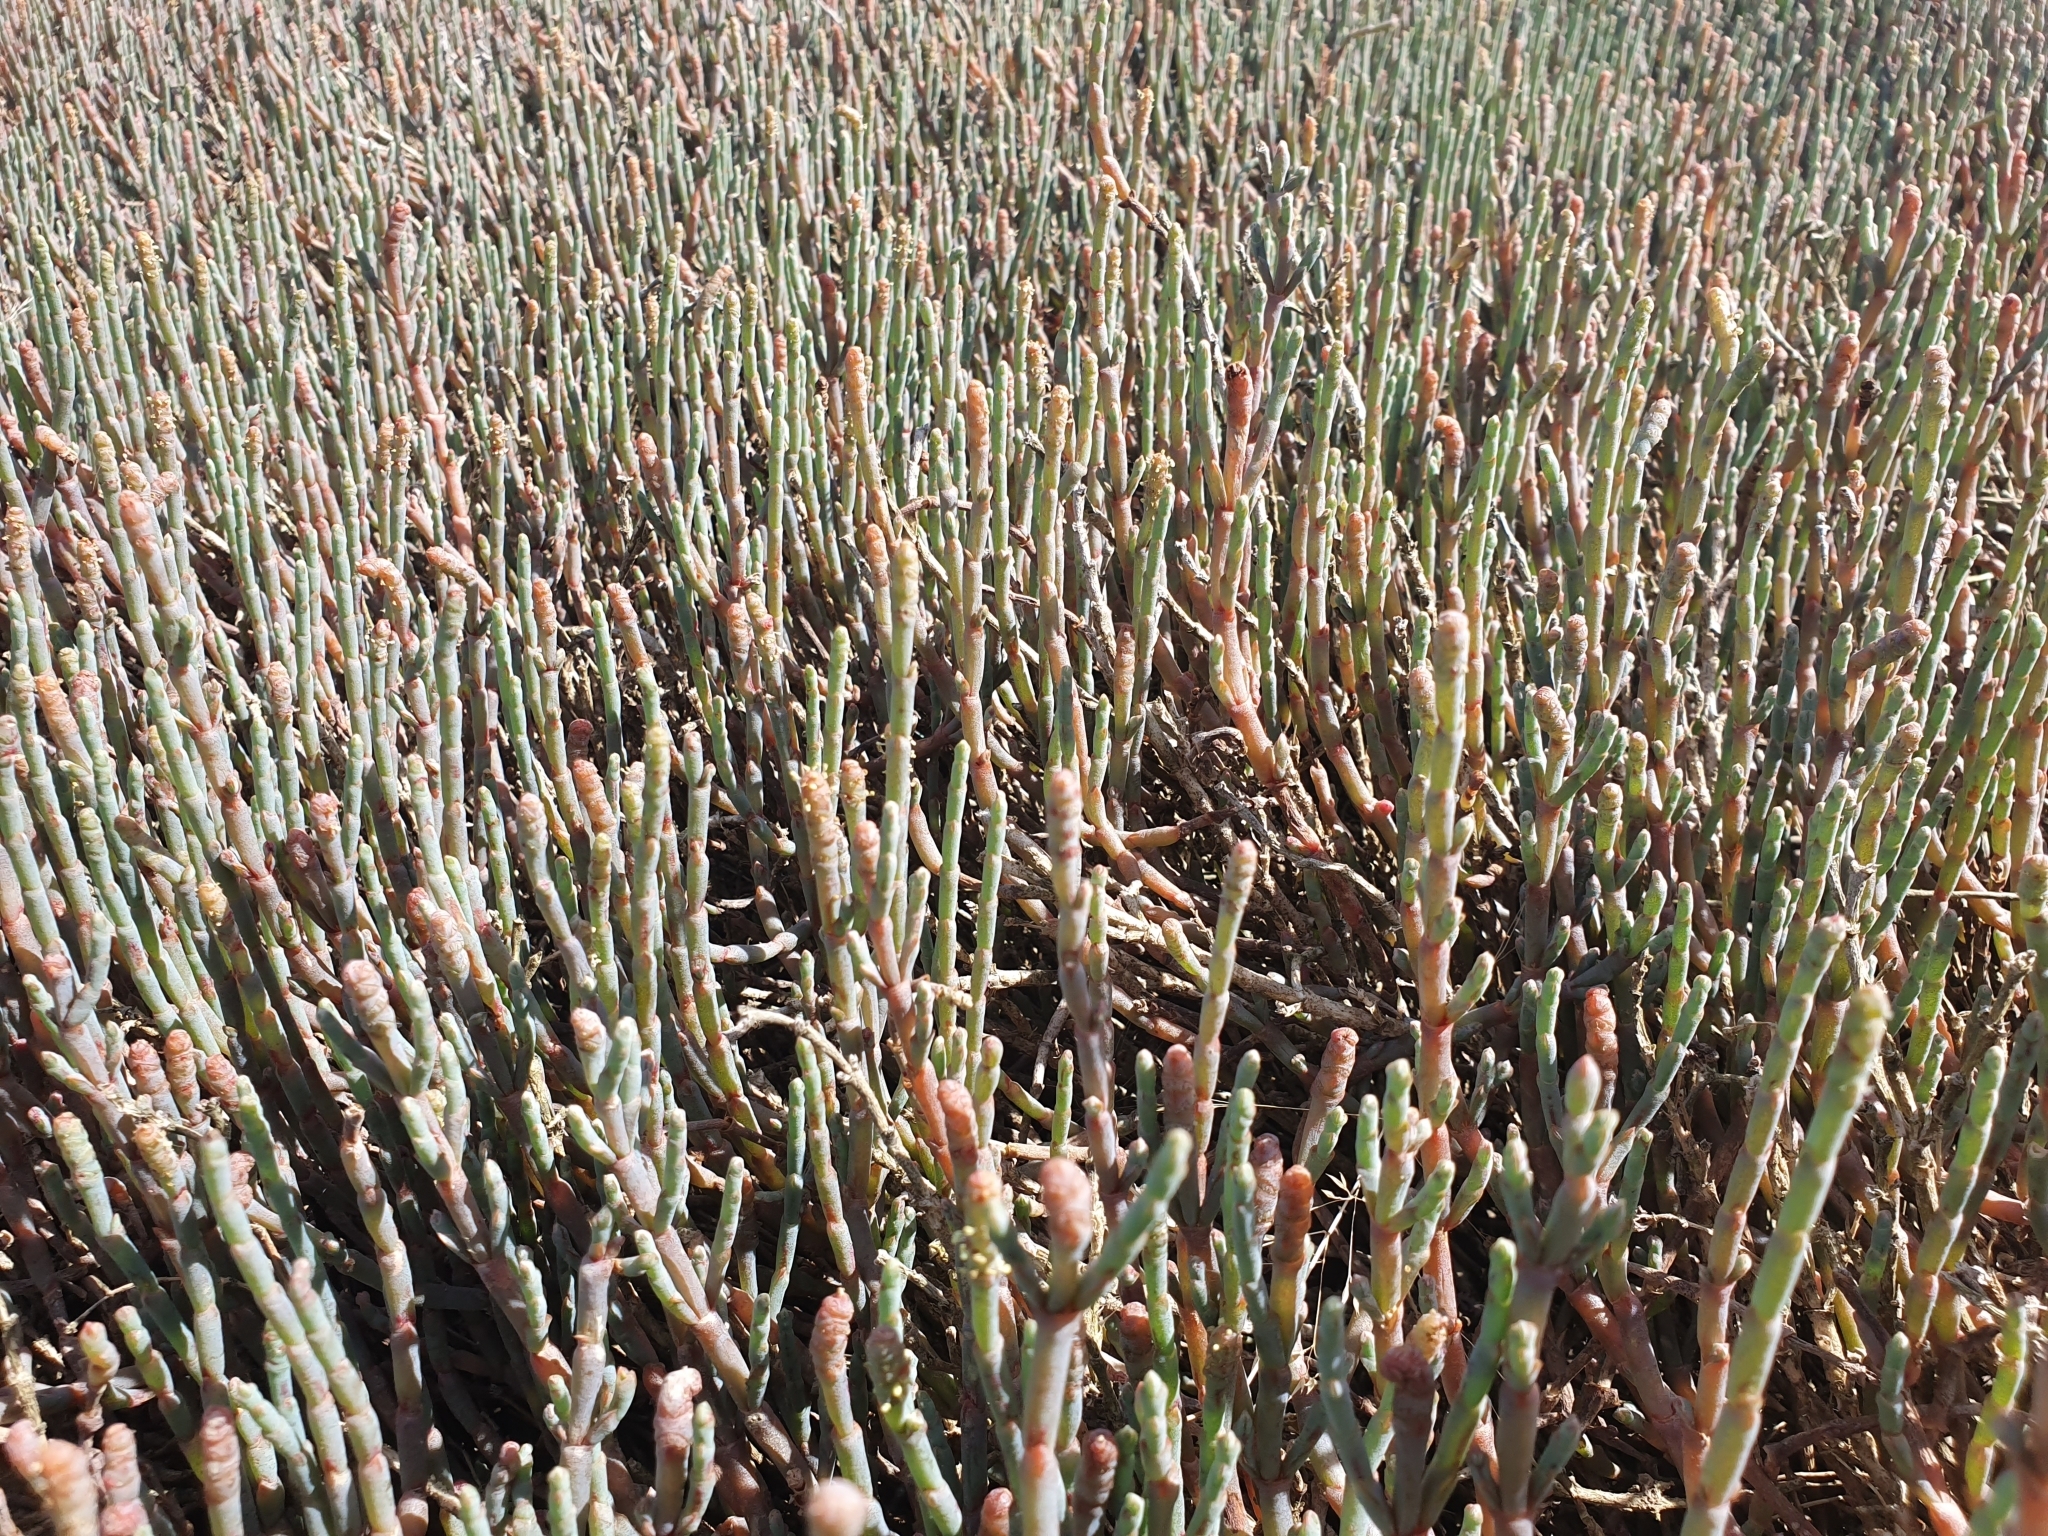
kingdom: Plantae
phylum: Tracheophyta
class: Magnoliopsida
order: Caryophyllales
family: Amaranthaceae
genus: Salicornia
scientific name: Salicornia quinqueflora
